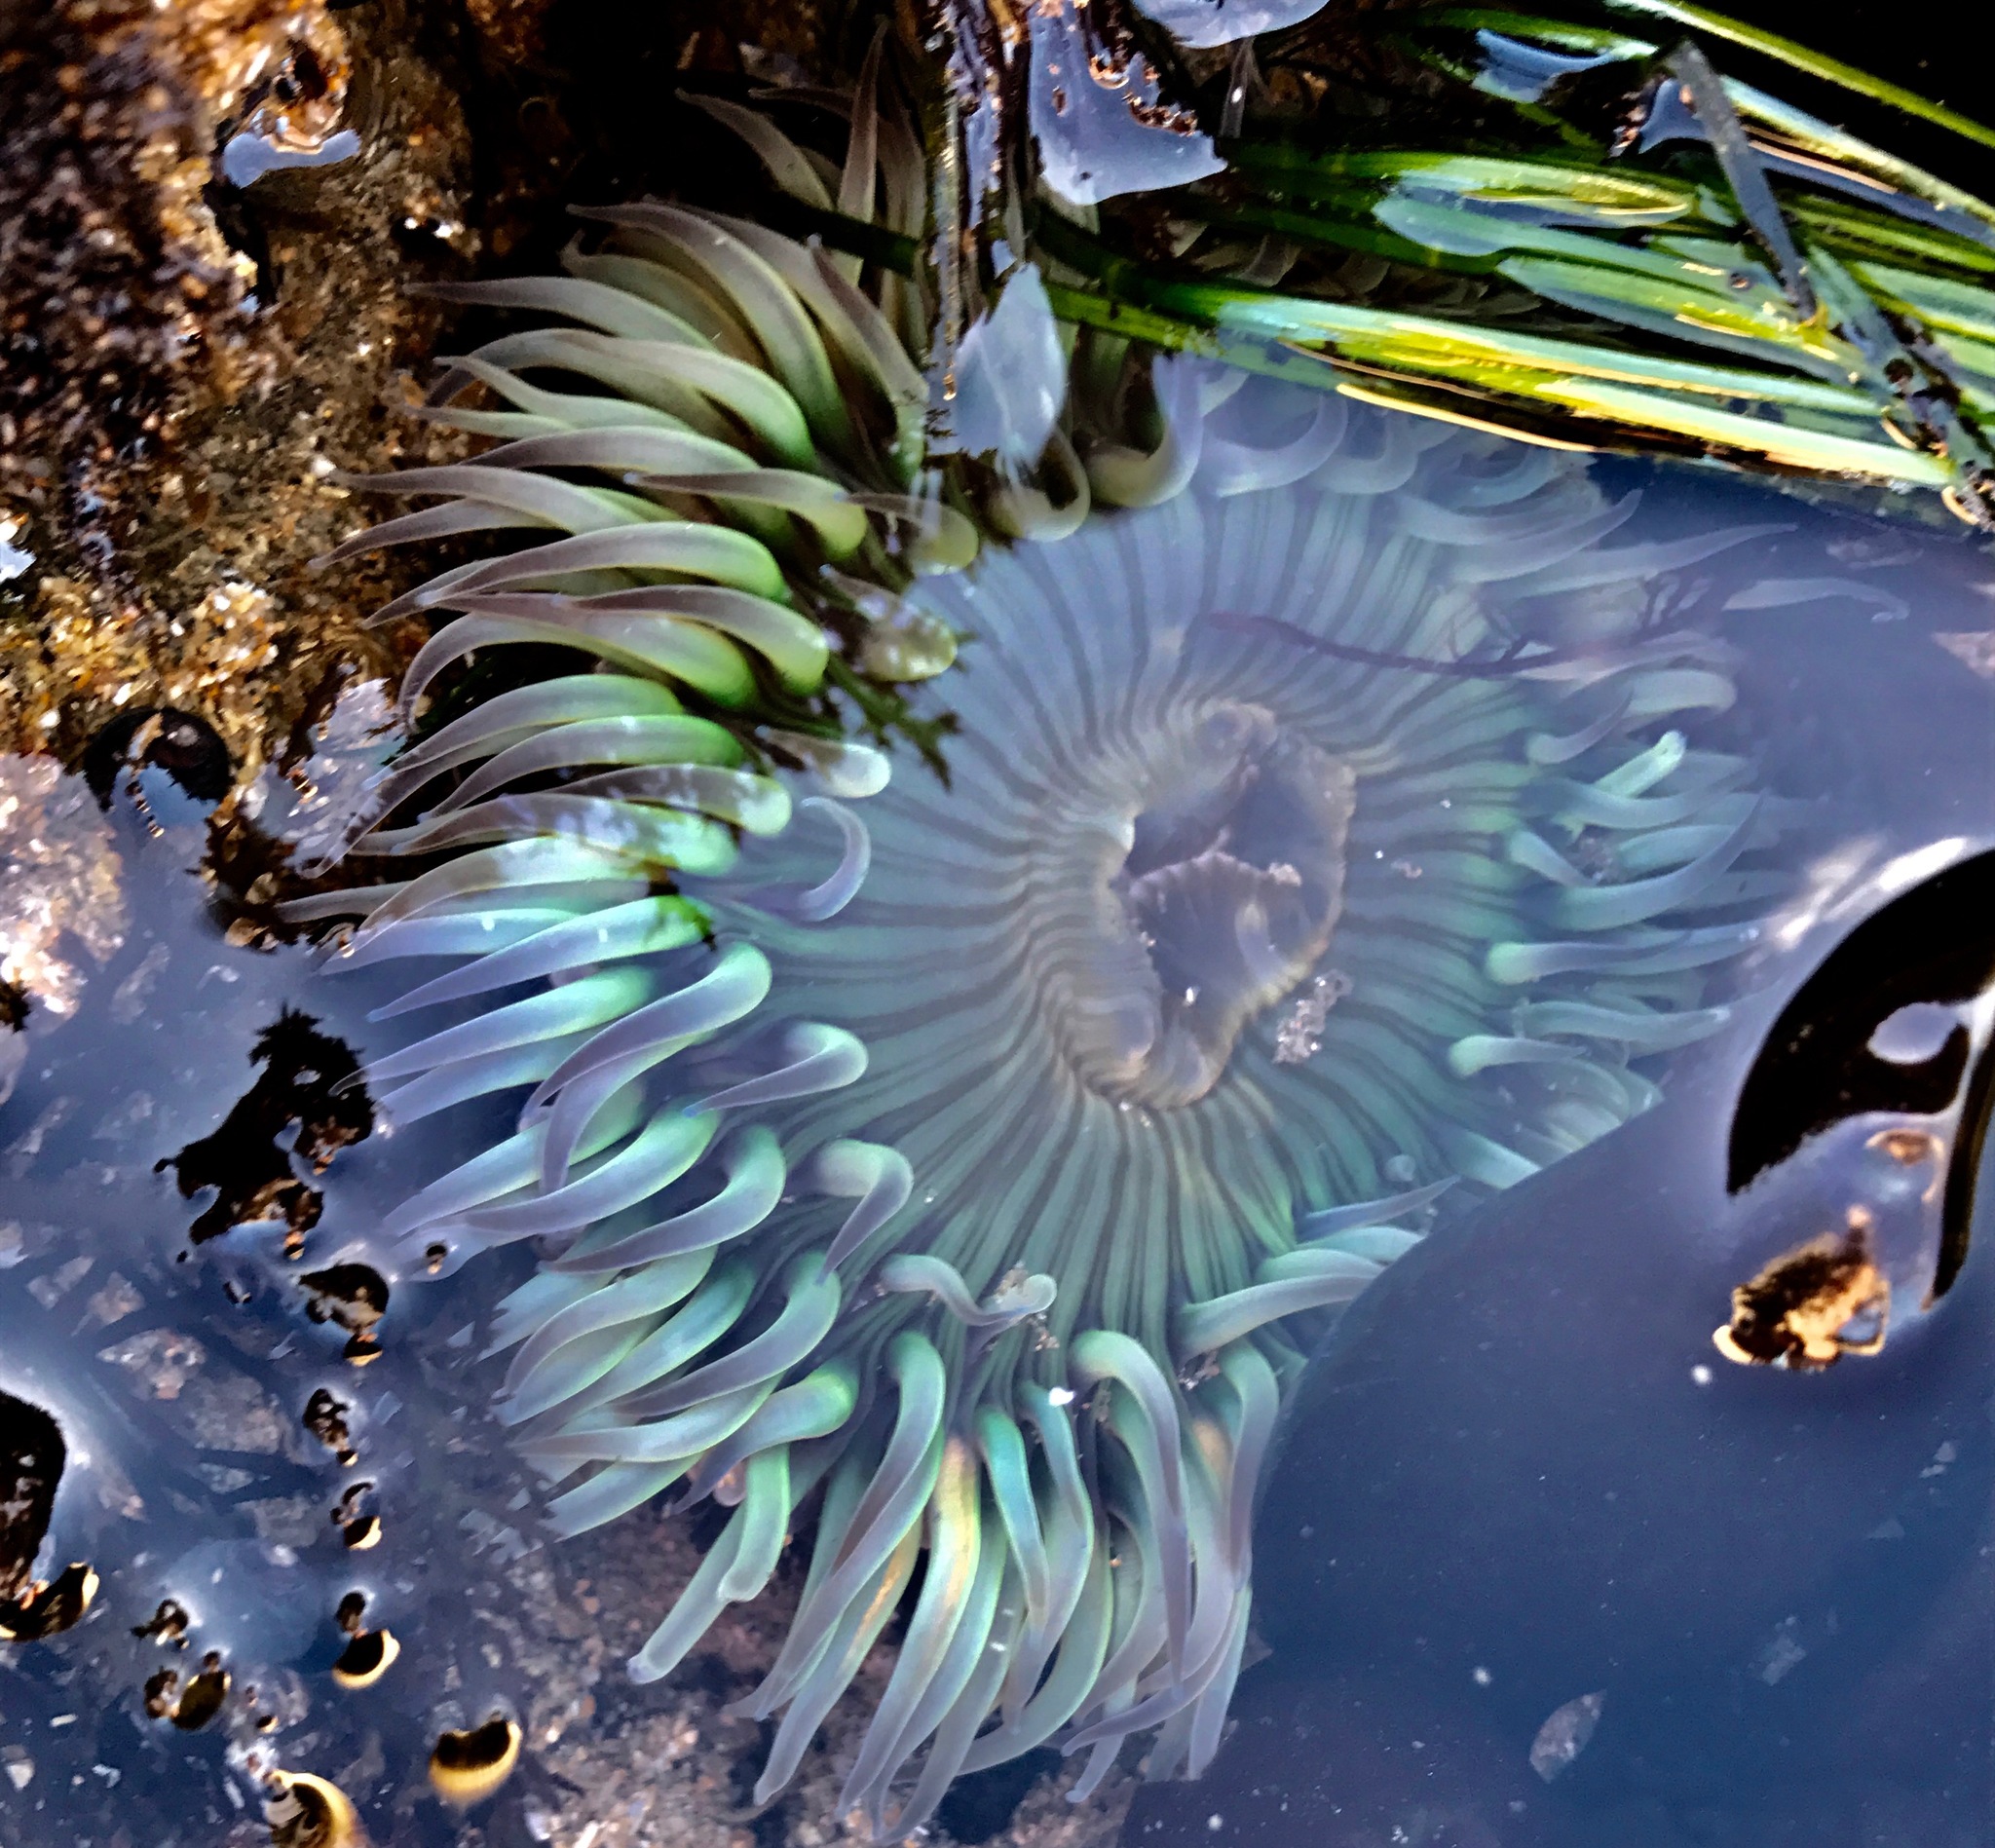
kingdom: Animalia
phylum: Cnidaria
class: Anthozoa
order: Actiniaria
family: Actiniidae
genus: Anthopleura
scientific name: Anthopleura sola
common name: Sun anemone
